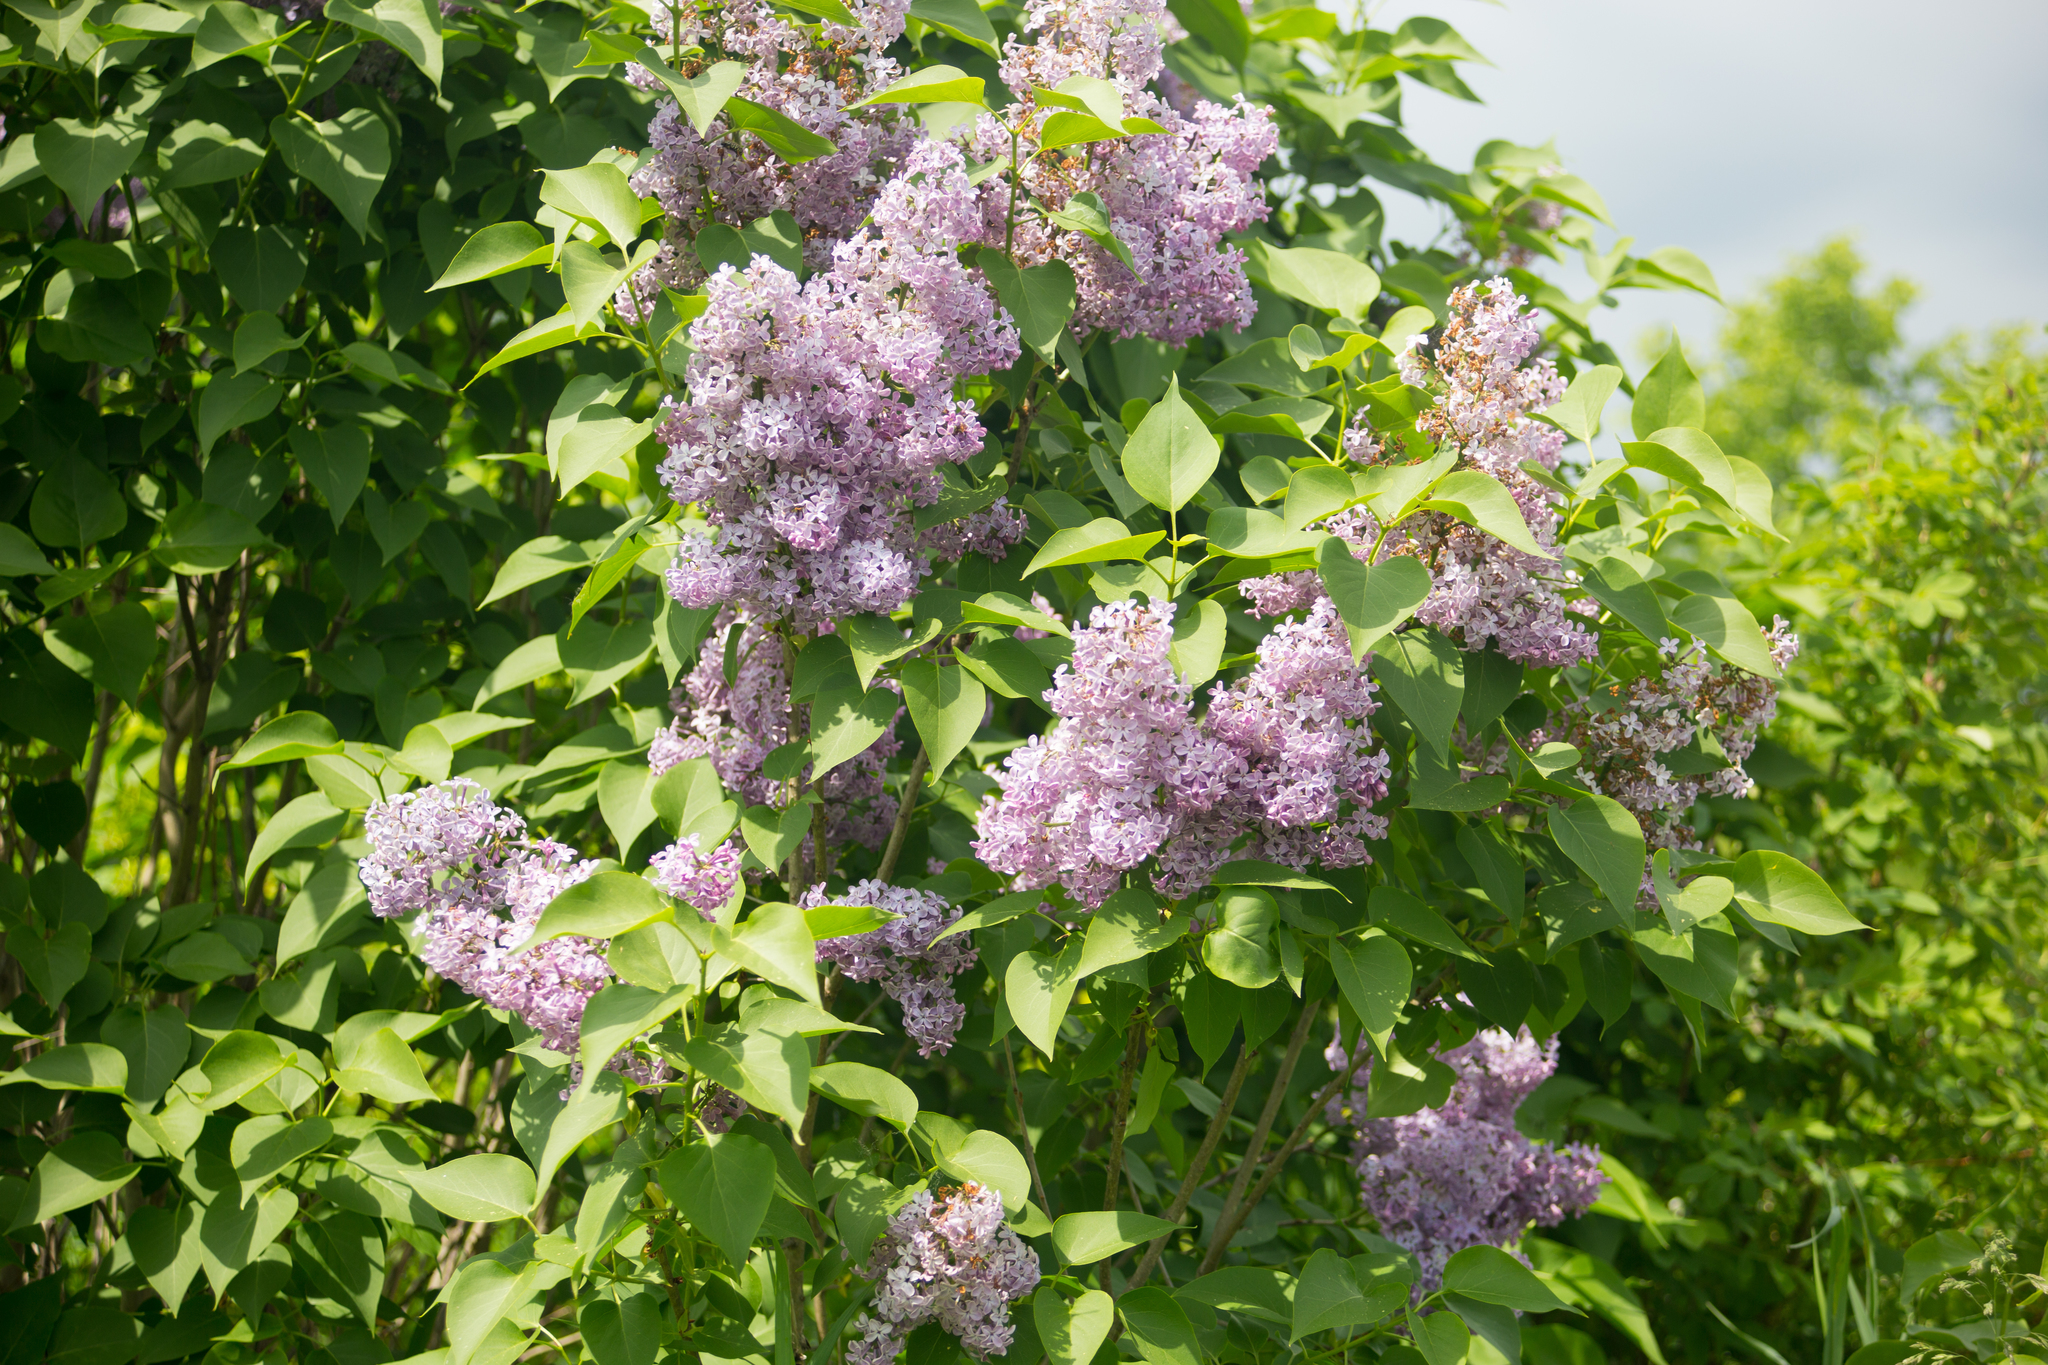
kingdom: Plantae
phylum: Tracheophyta
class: Magnoliopsida
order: Lamiales
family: Oleaceae
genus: Syringa
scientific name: Syringa vulgaris
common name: Common lilac
